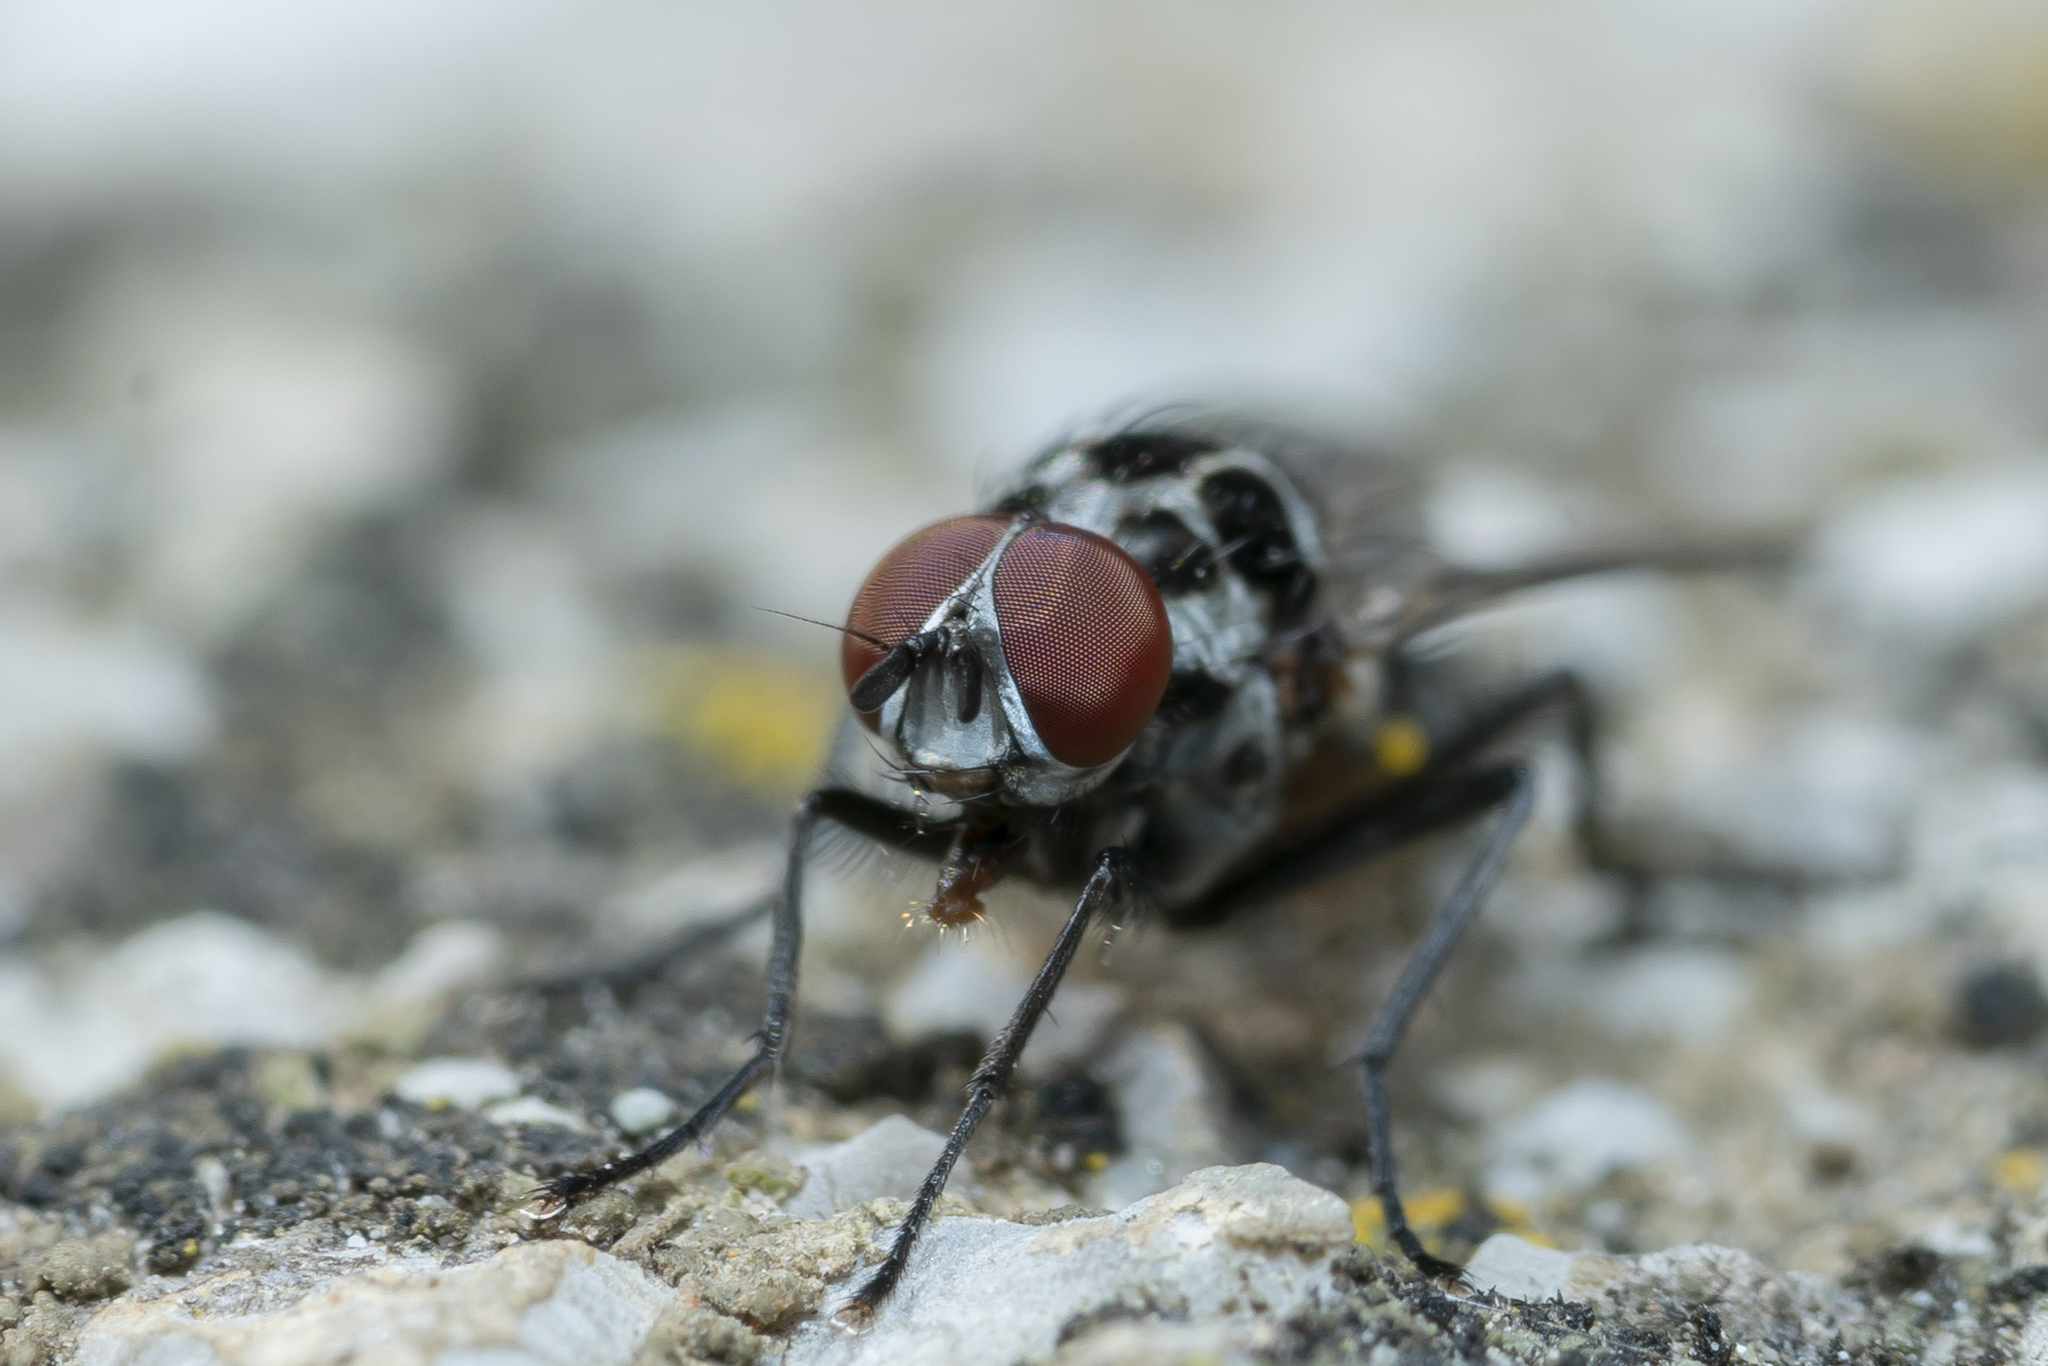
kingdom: Animalia
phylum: Arthropoda
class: Insecta
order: Diptera
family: Anthomyiidae
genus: Anthomyia
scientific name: Anthomyia pluvialis
